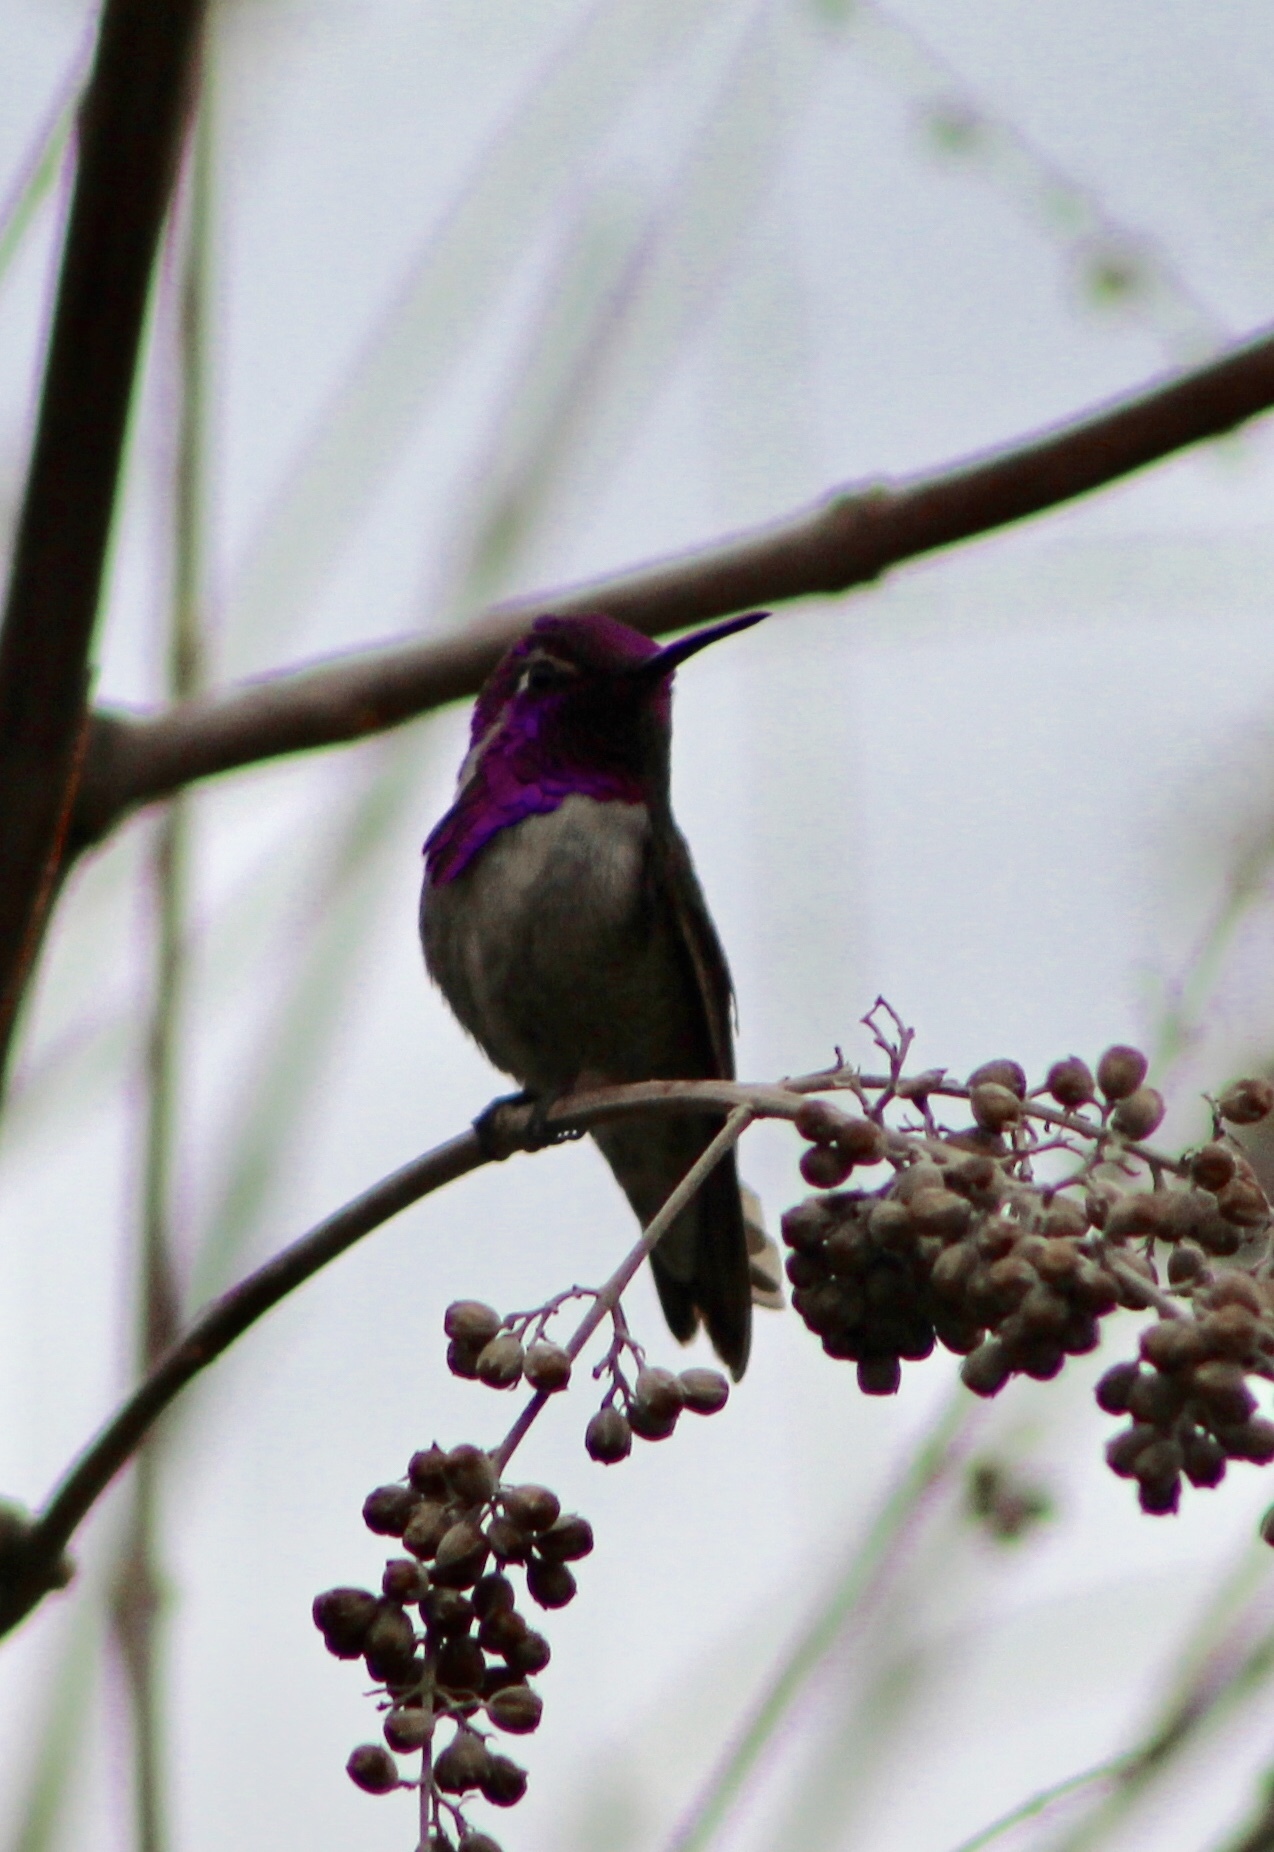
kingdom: Animalia
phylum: Chordata
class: Aves
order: Apodiformes
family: Trochilidae
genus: Calypte
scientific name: Calypte costae
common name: Costa's hummingbird
